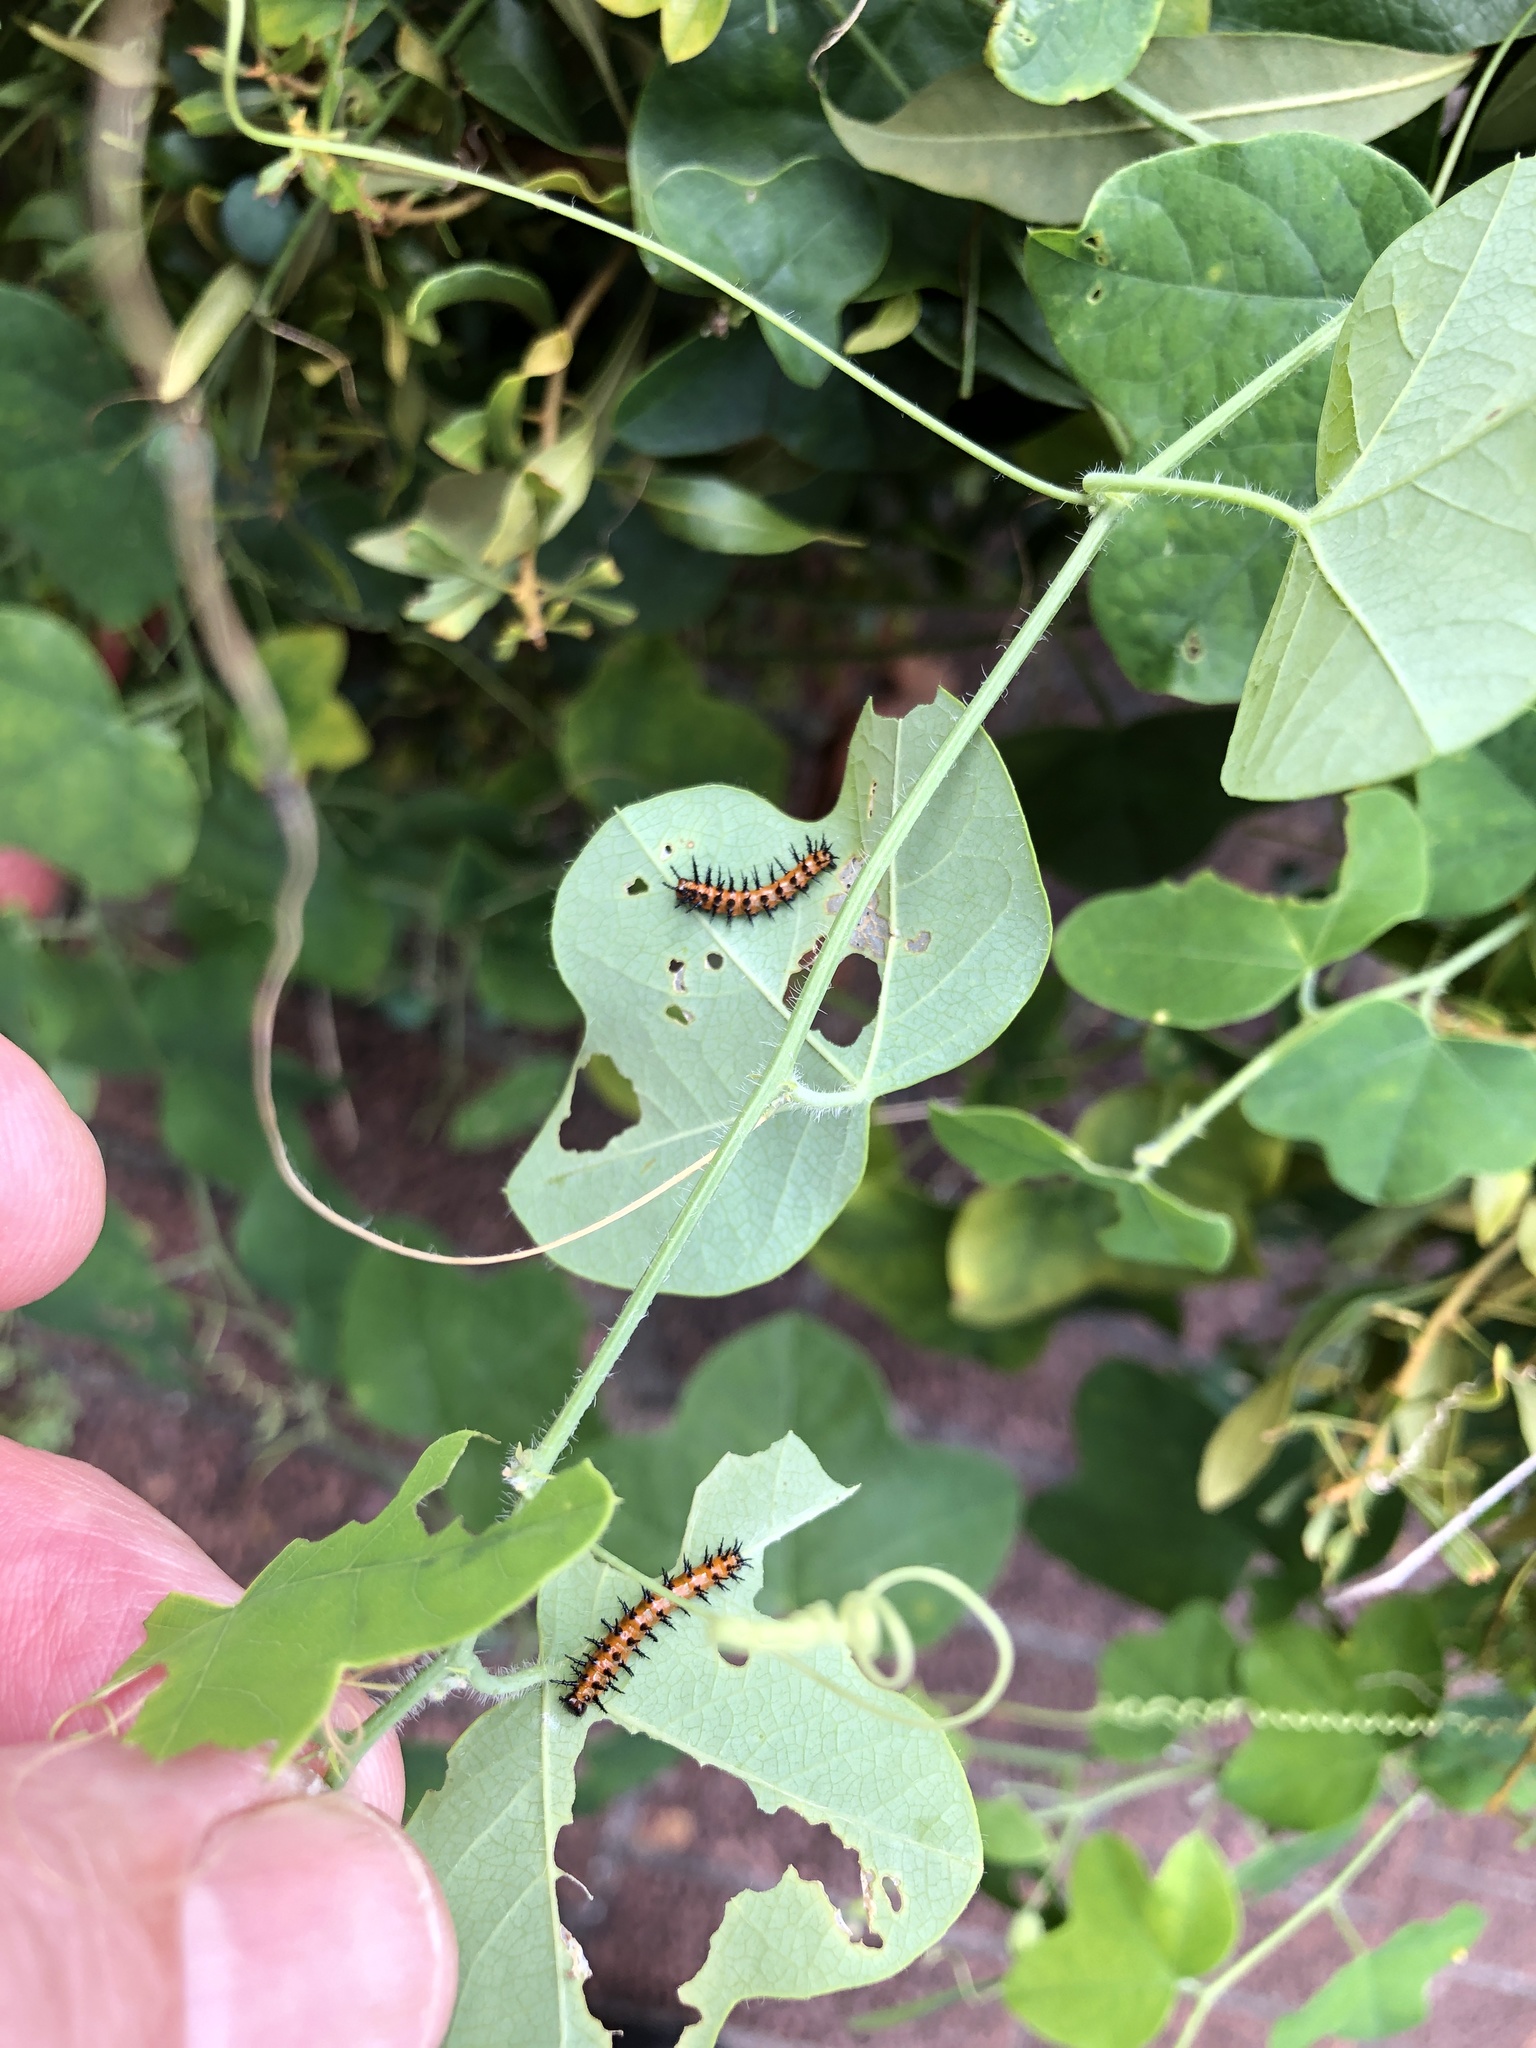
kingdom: Animalia
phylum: Arthropoda
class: Insecta
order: Lepidoptera
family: Nymphalidae
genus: Dione
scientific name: Dione vanillae
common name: Gulf fritillary
